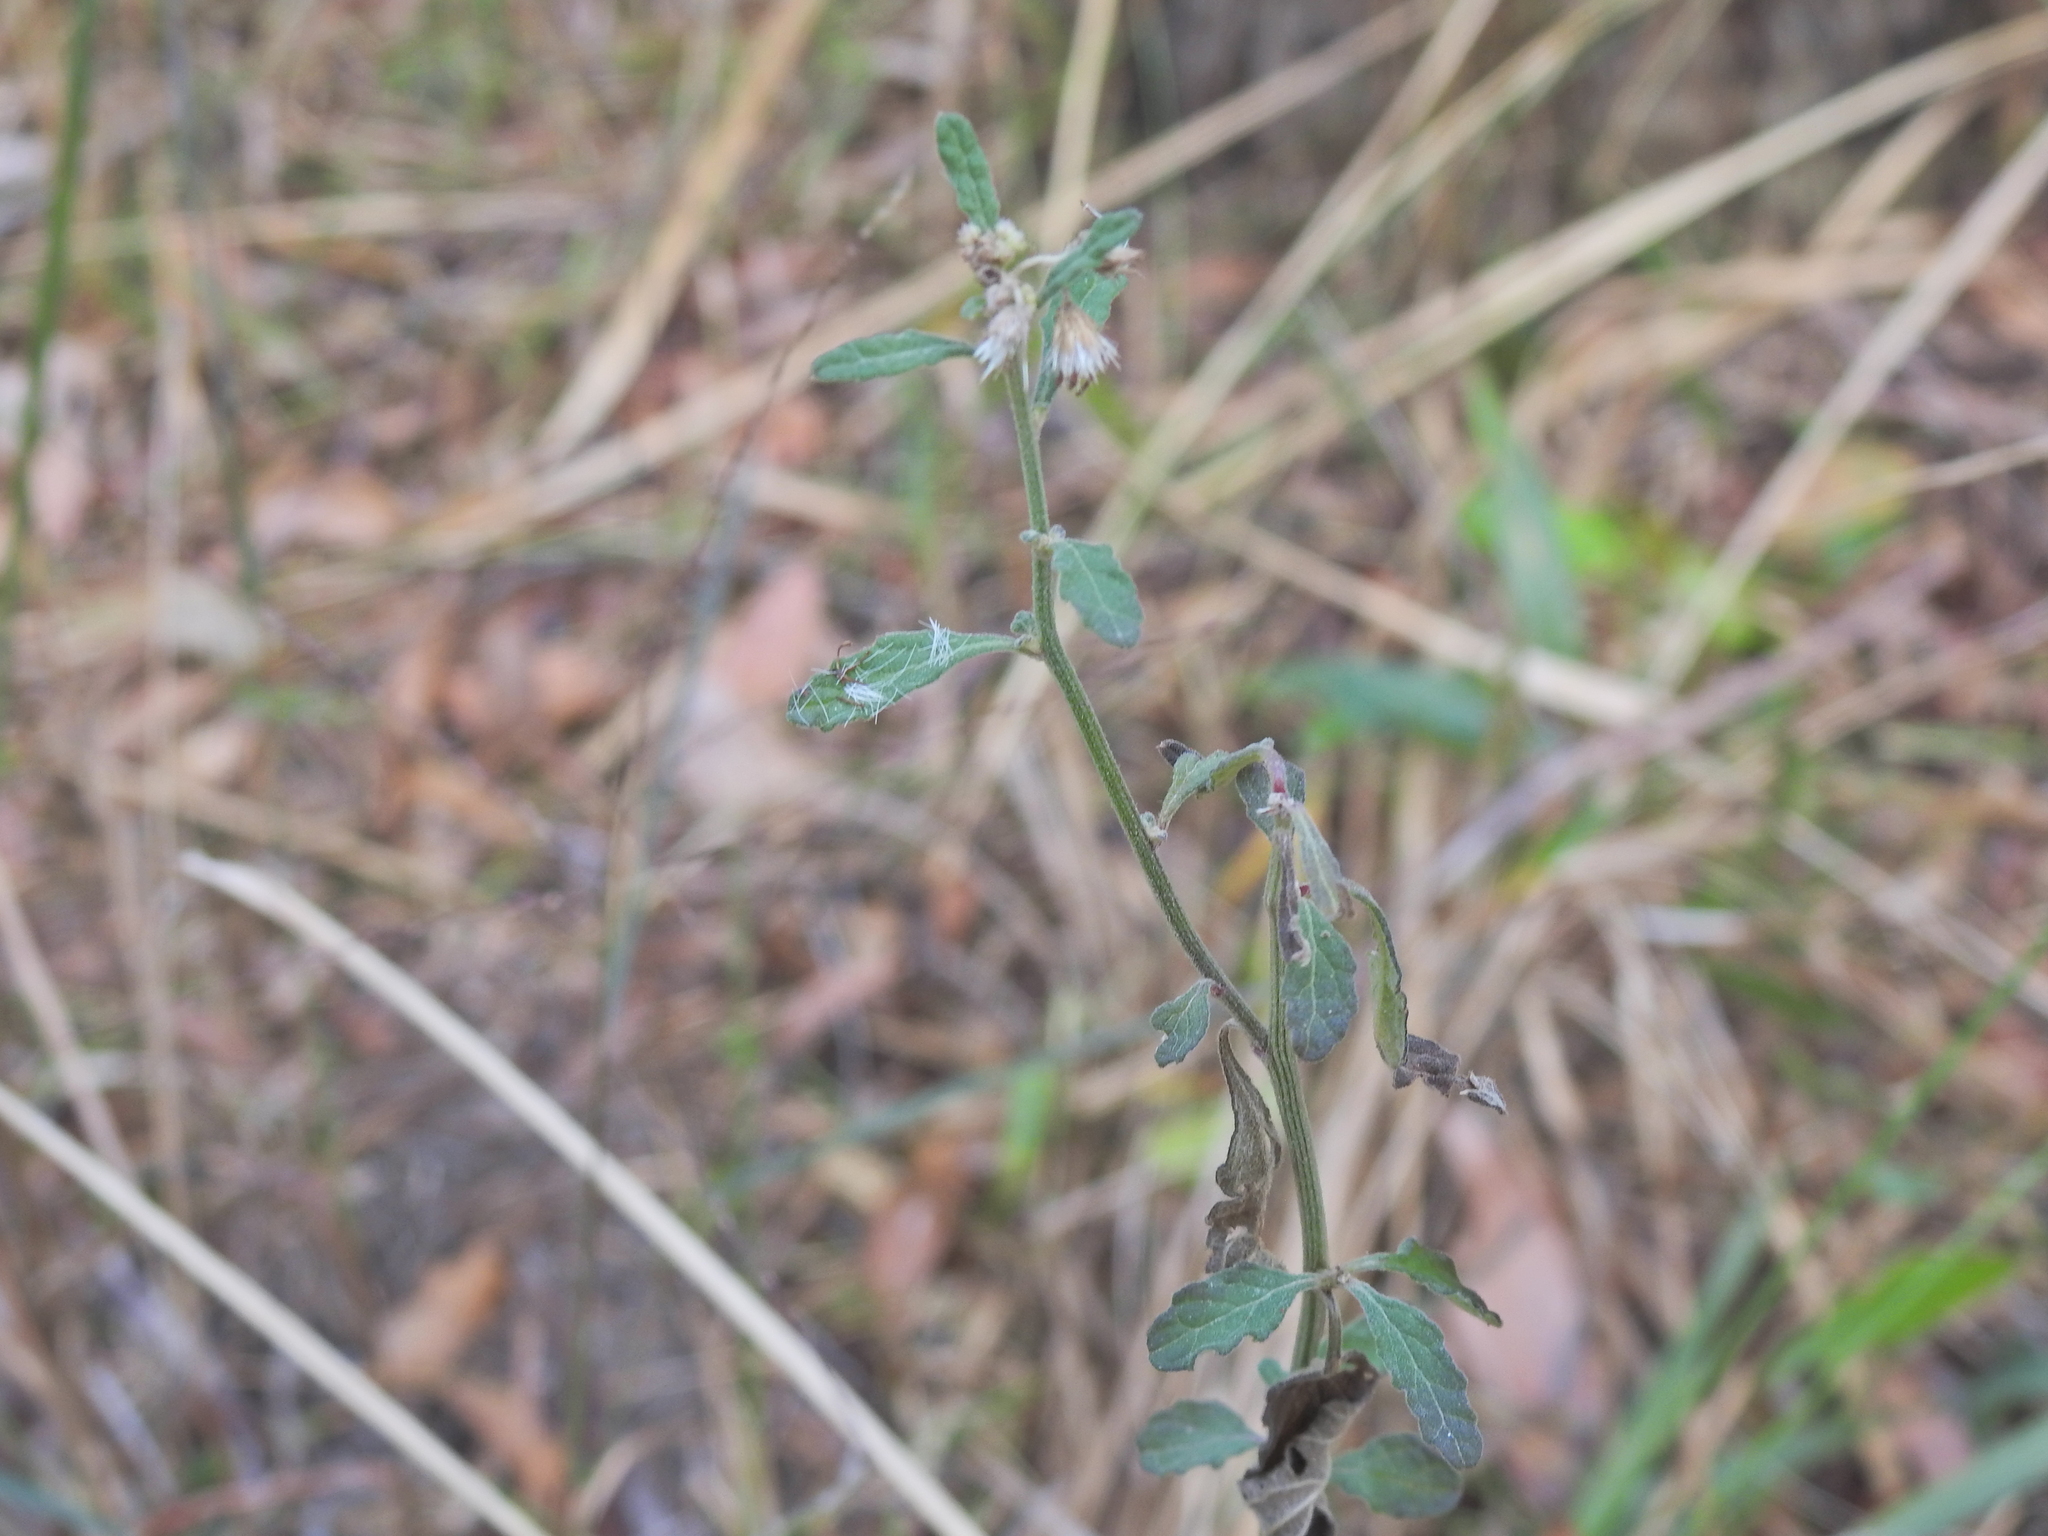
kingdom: Plantae
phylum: Tracheophyta
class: Magnoliopsida
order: Asterales
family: Asteraceae
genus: Cyanthillium
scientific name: Cyanthillium cinereum
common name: Little ironweed
